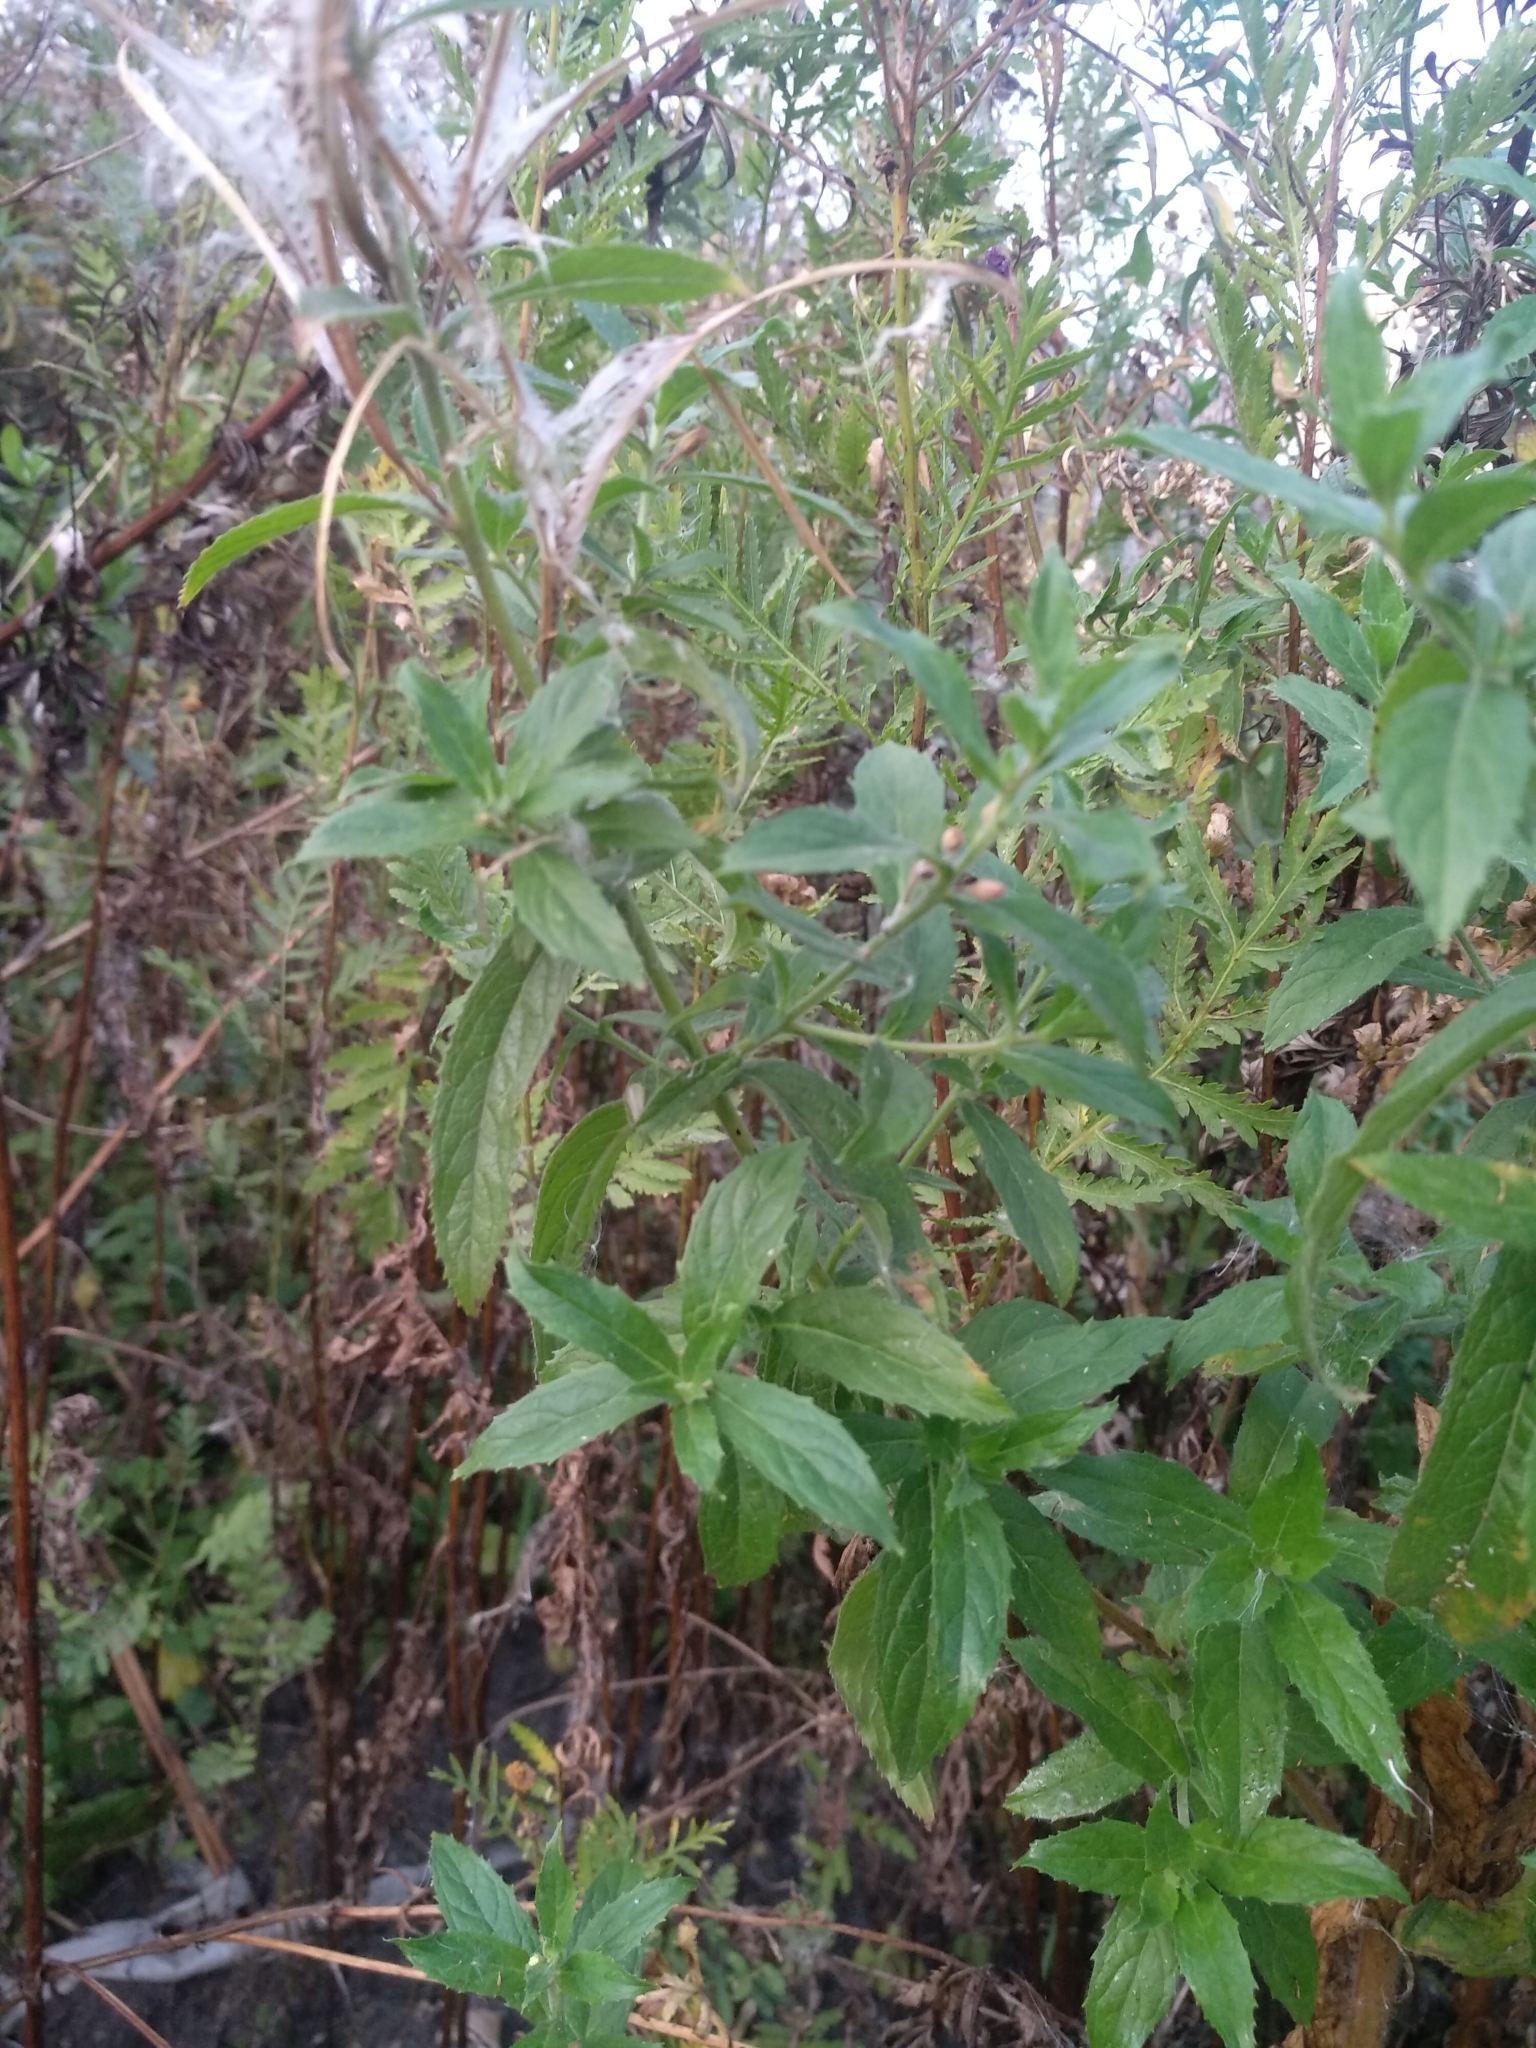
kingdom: Plantae
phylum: Tracheophyta
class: Magnoliopsida
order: Myrtales
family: Onagraceae
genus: Epilobium
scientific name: Epilobium hirsutum
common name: Great willowherb
